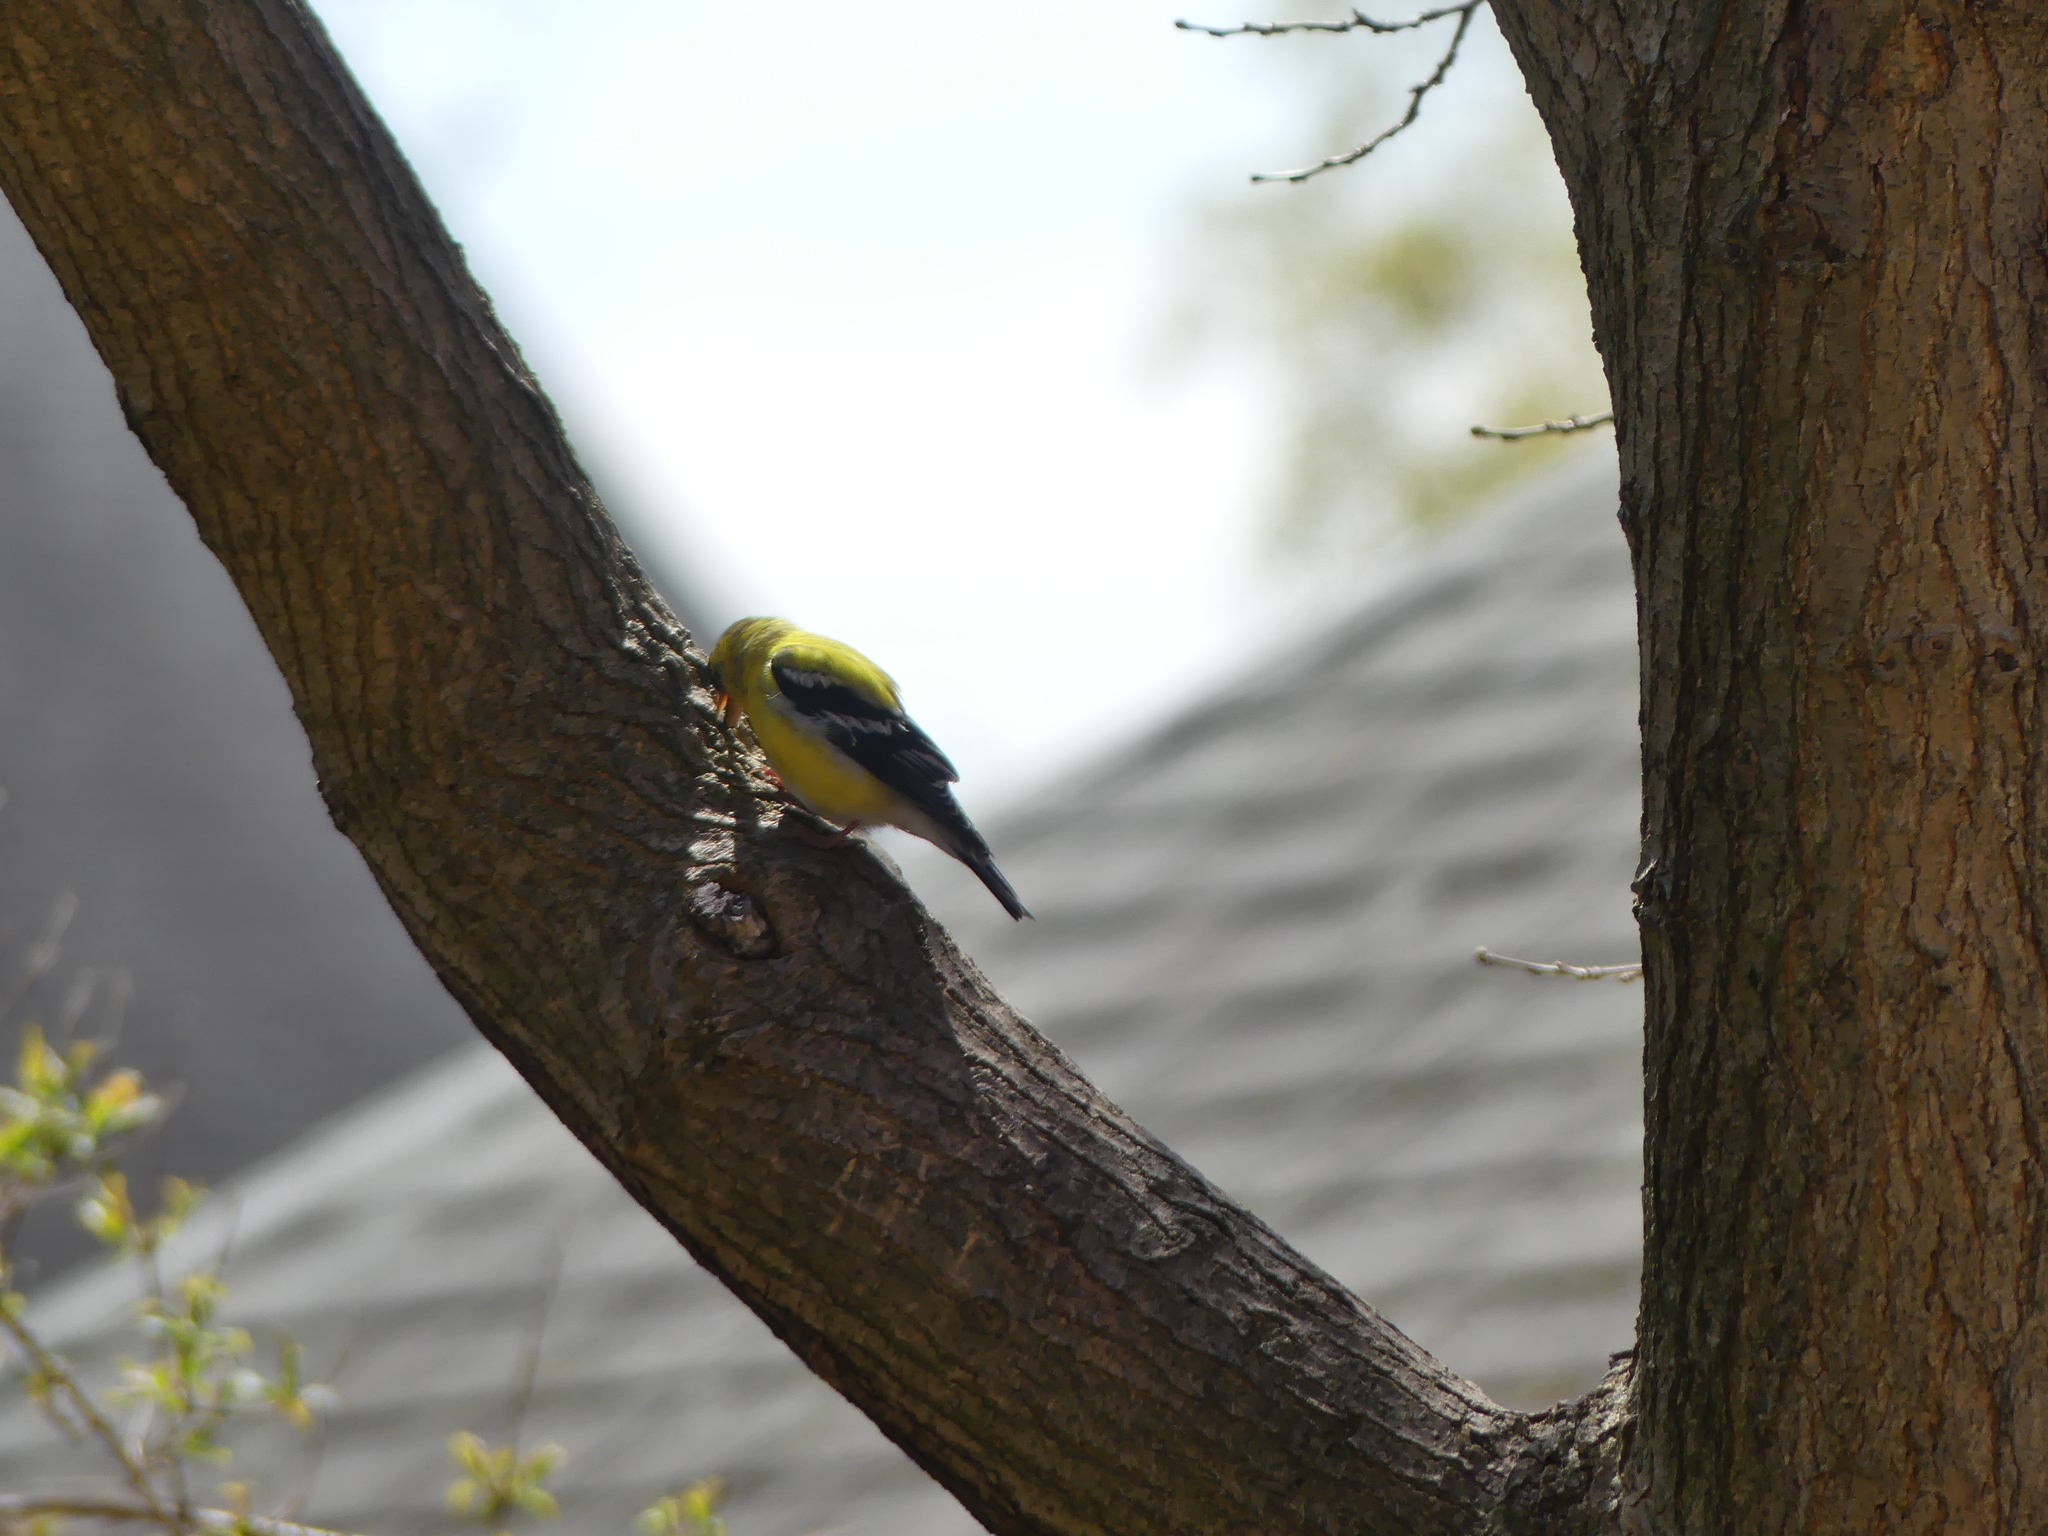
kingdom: Animalia
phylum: Chordata
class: Aves
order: Passeriformes
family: Fringillidae
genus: Spinus
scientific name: Spinus tristis
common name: American goldfinch
